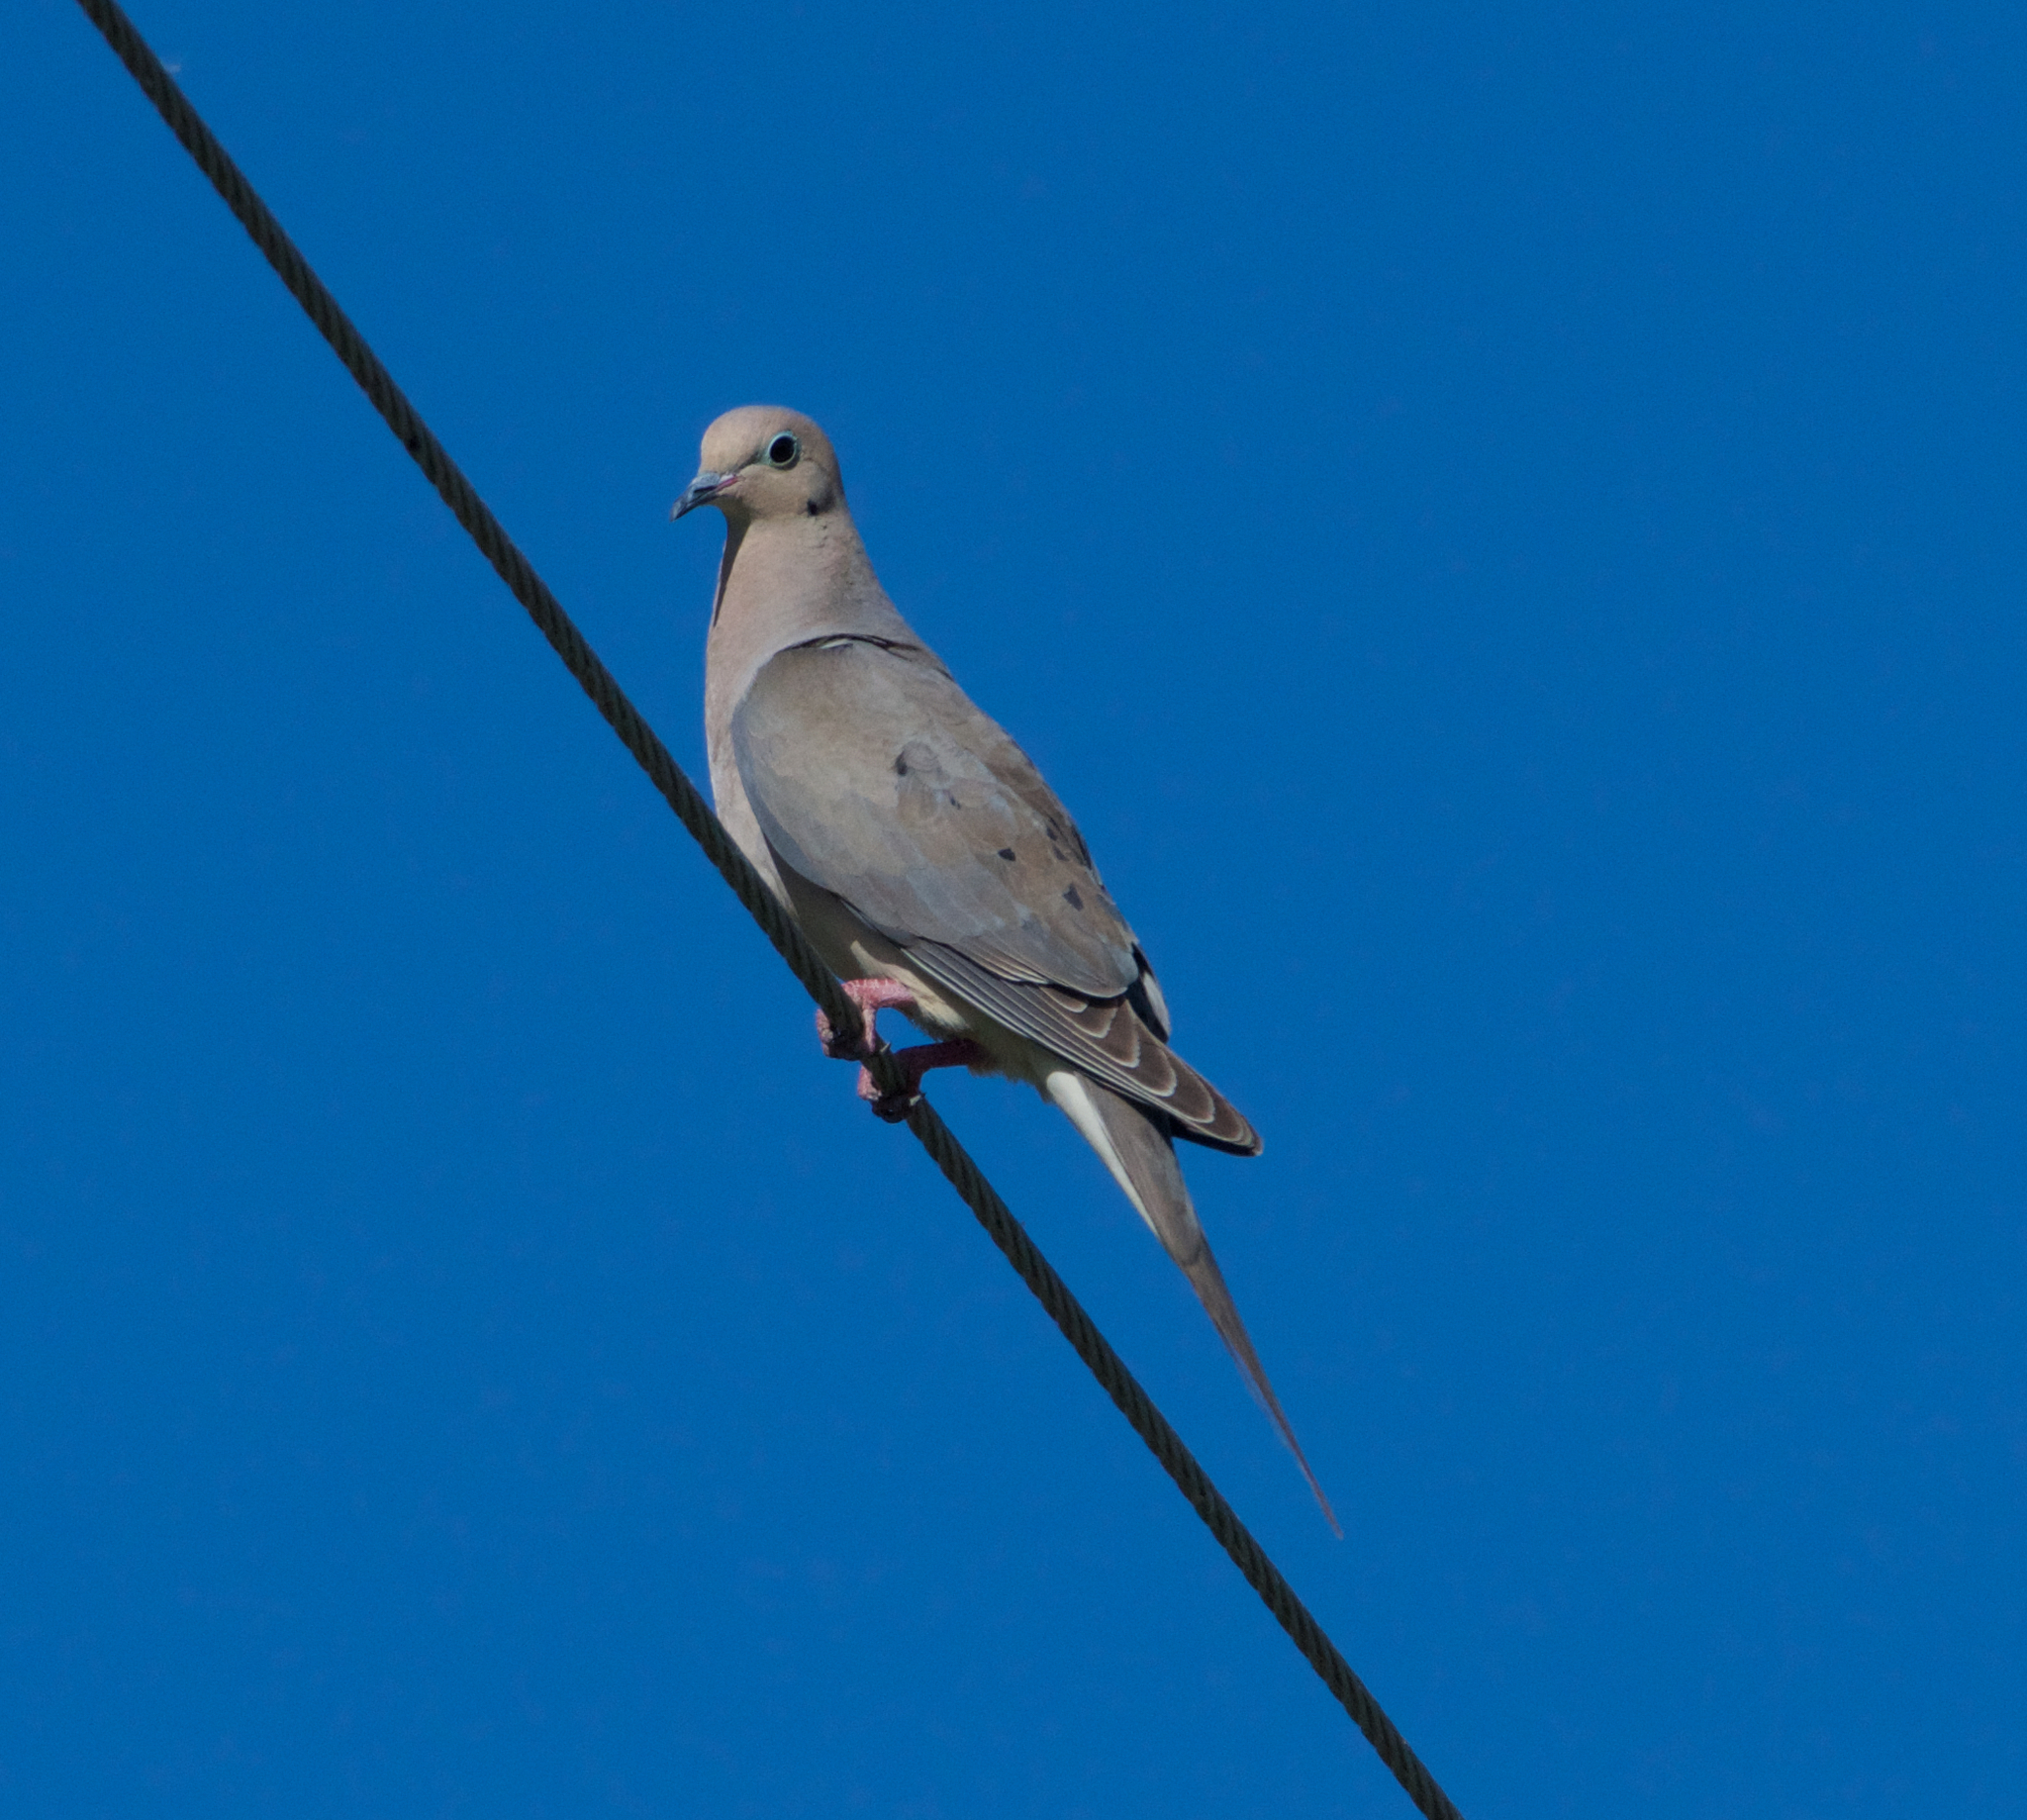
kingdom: Animalia
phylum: Chordata
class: Aves
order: Columbiformes
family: Columbidae
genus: Zenaida
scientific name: Zenaida macroura
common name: Mourning dove
